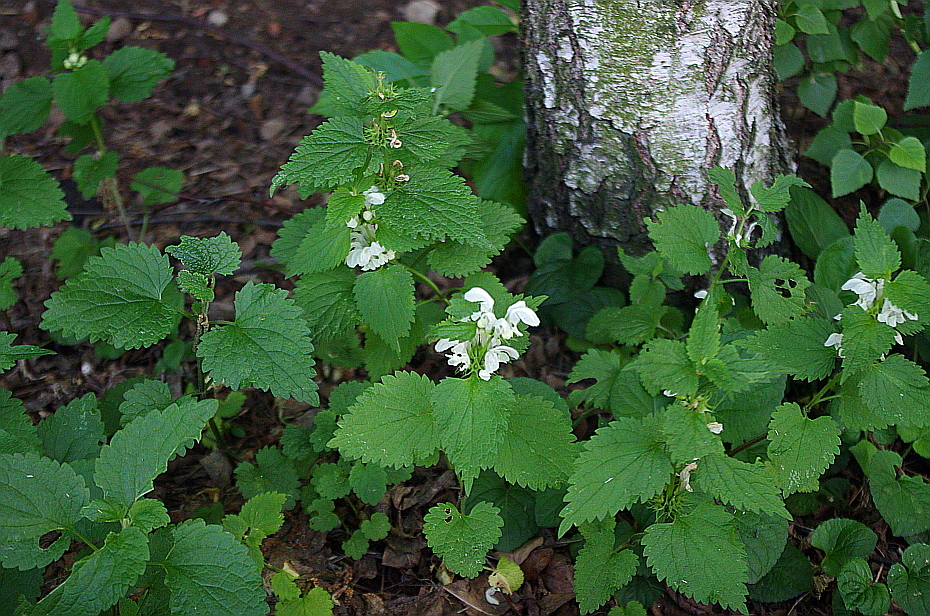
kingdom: Plantae
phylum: Tracheophyta
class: Magnoliopsida
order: Lamiales
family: Lamiaceae
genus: Lamium
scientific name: Lamium album
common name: White dead-nettle
